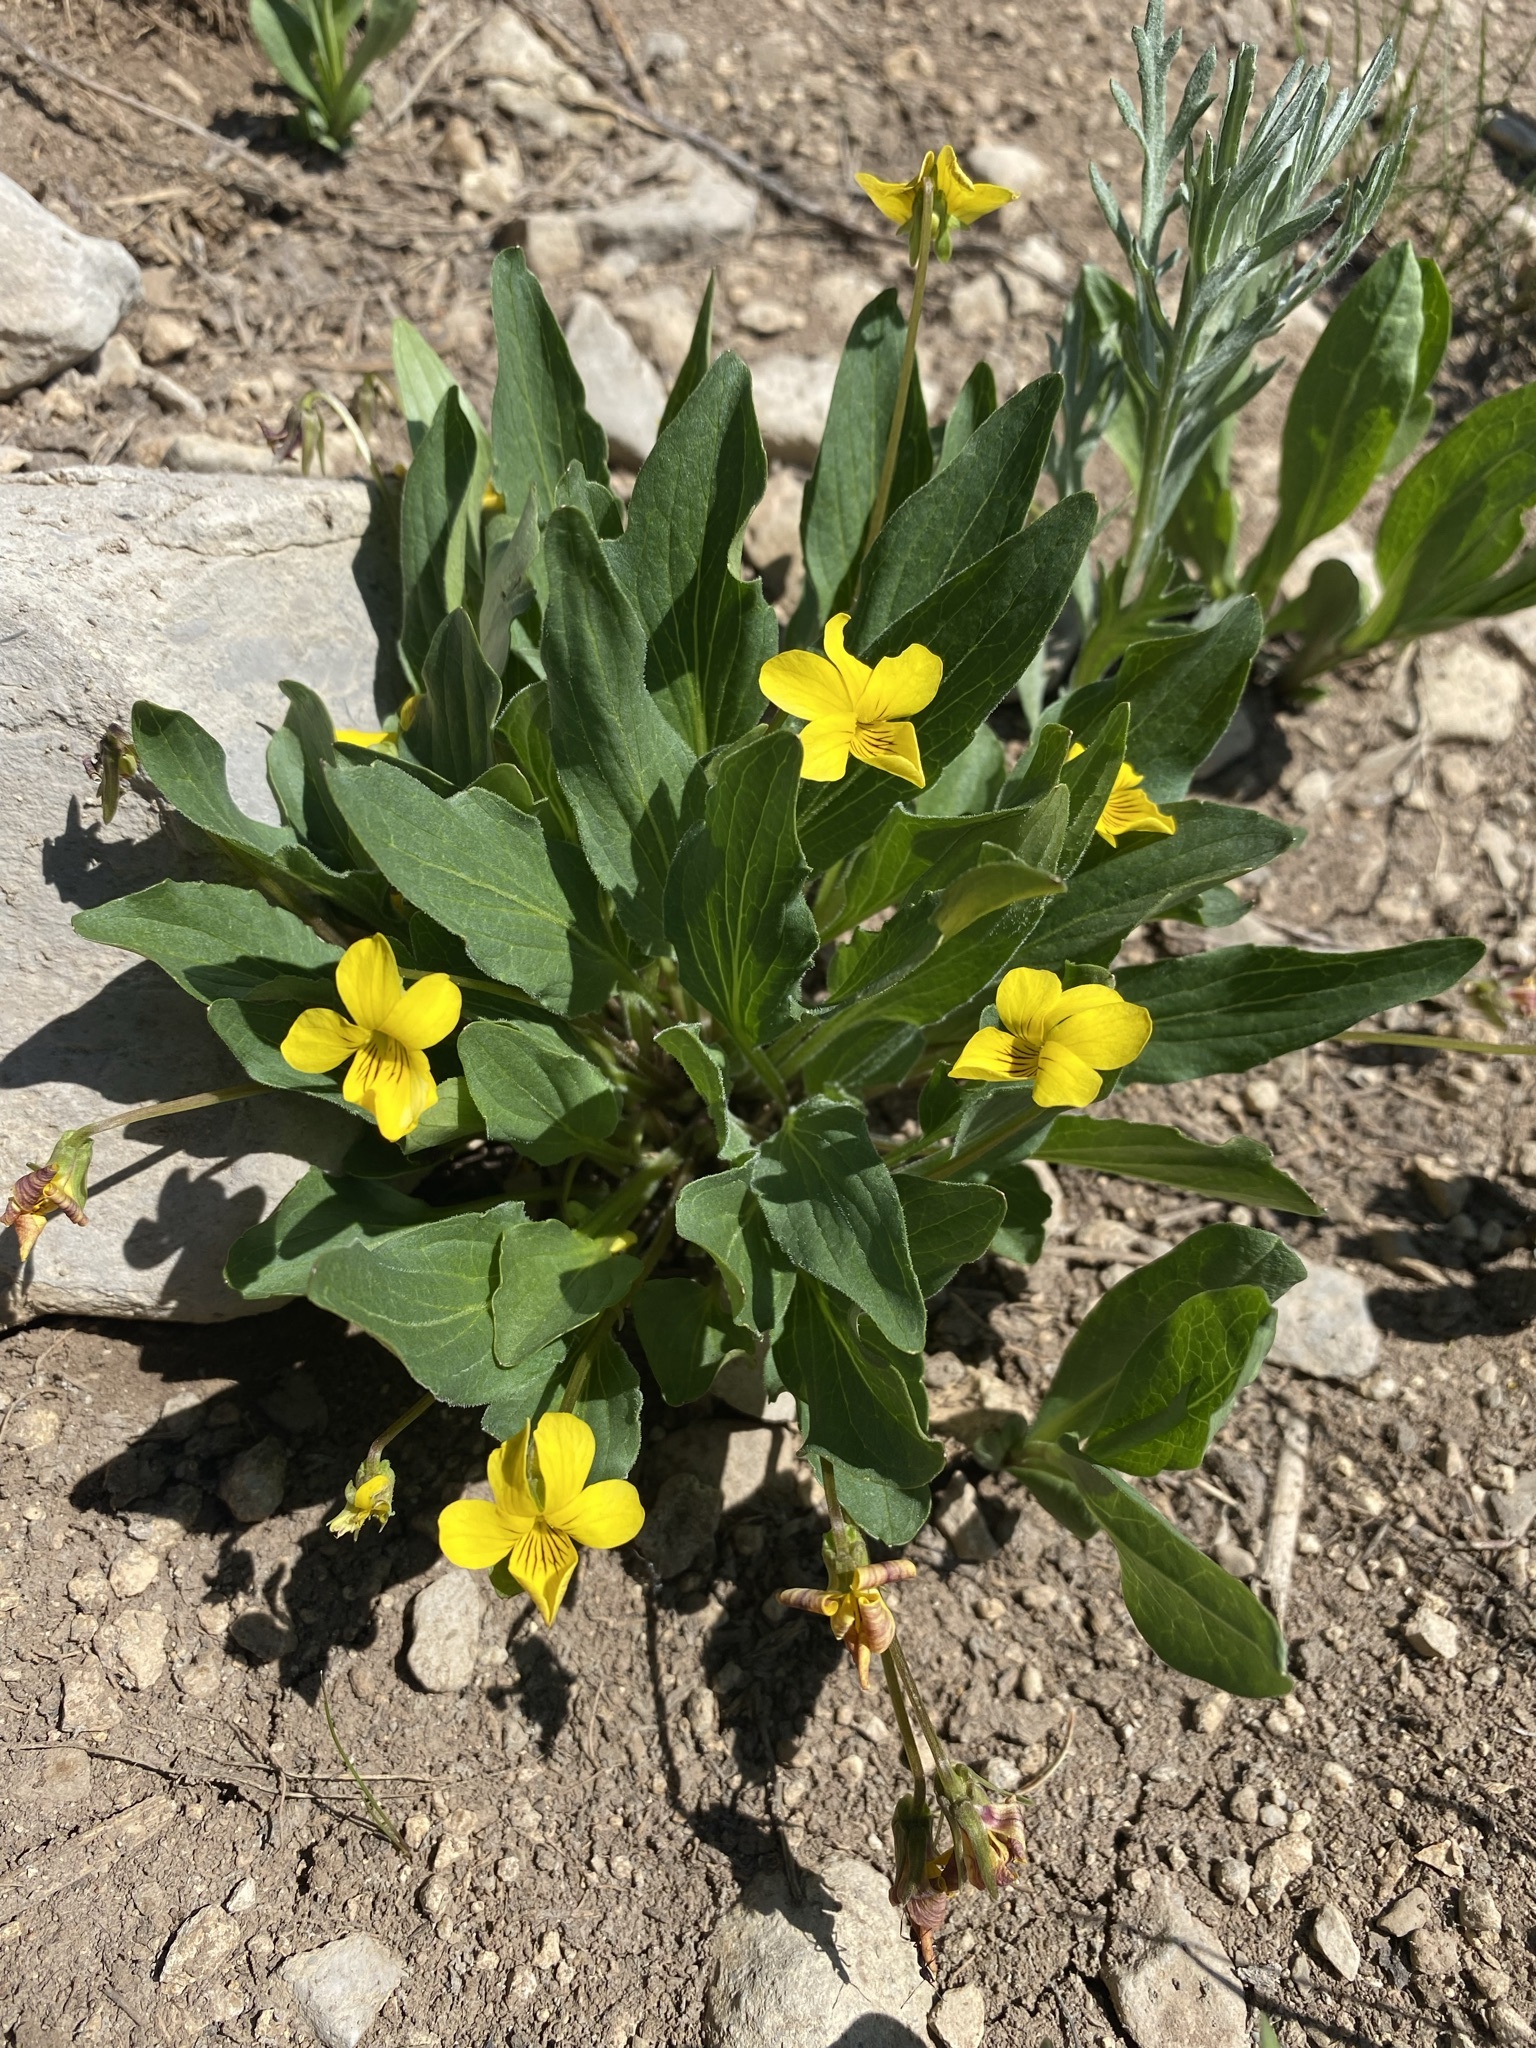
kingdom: Plantae
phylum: Tracheophyta
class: Magnoliopsida
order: Malpighiales
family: Violaceae
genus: Viola
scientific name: Viola vallicola
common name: Valley violet
